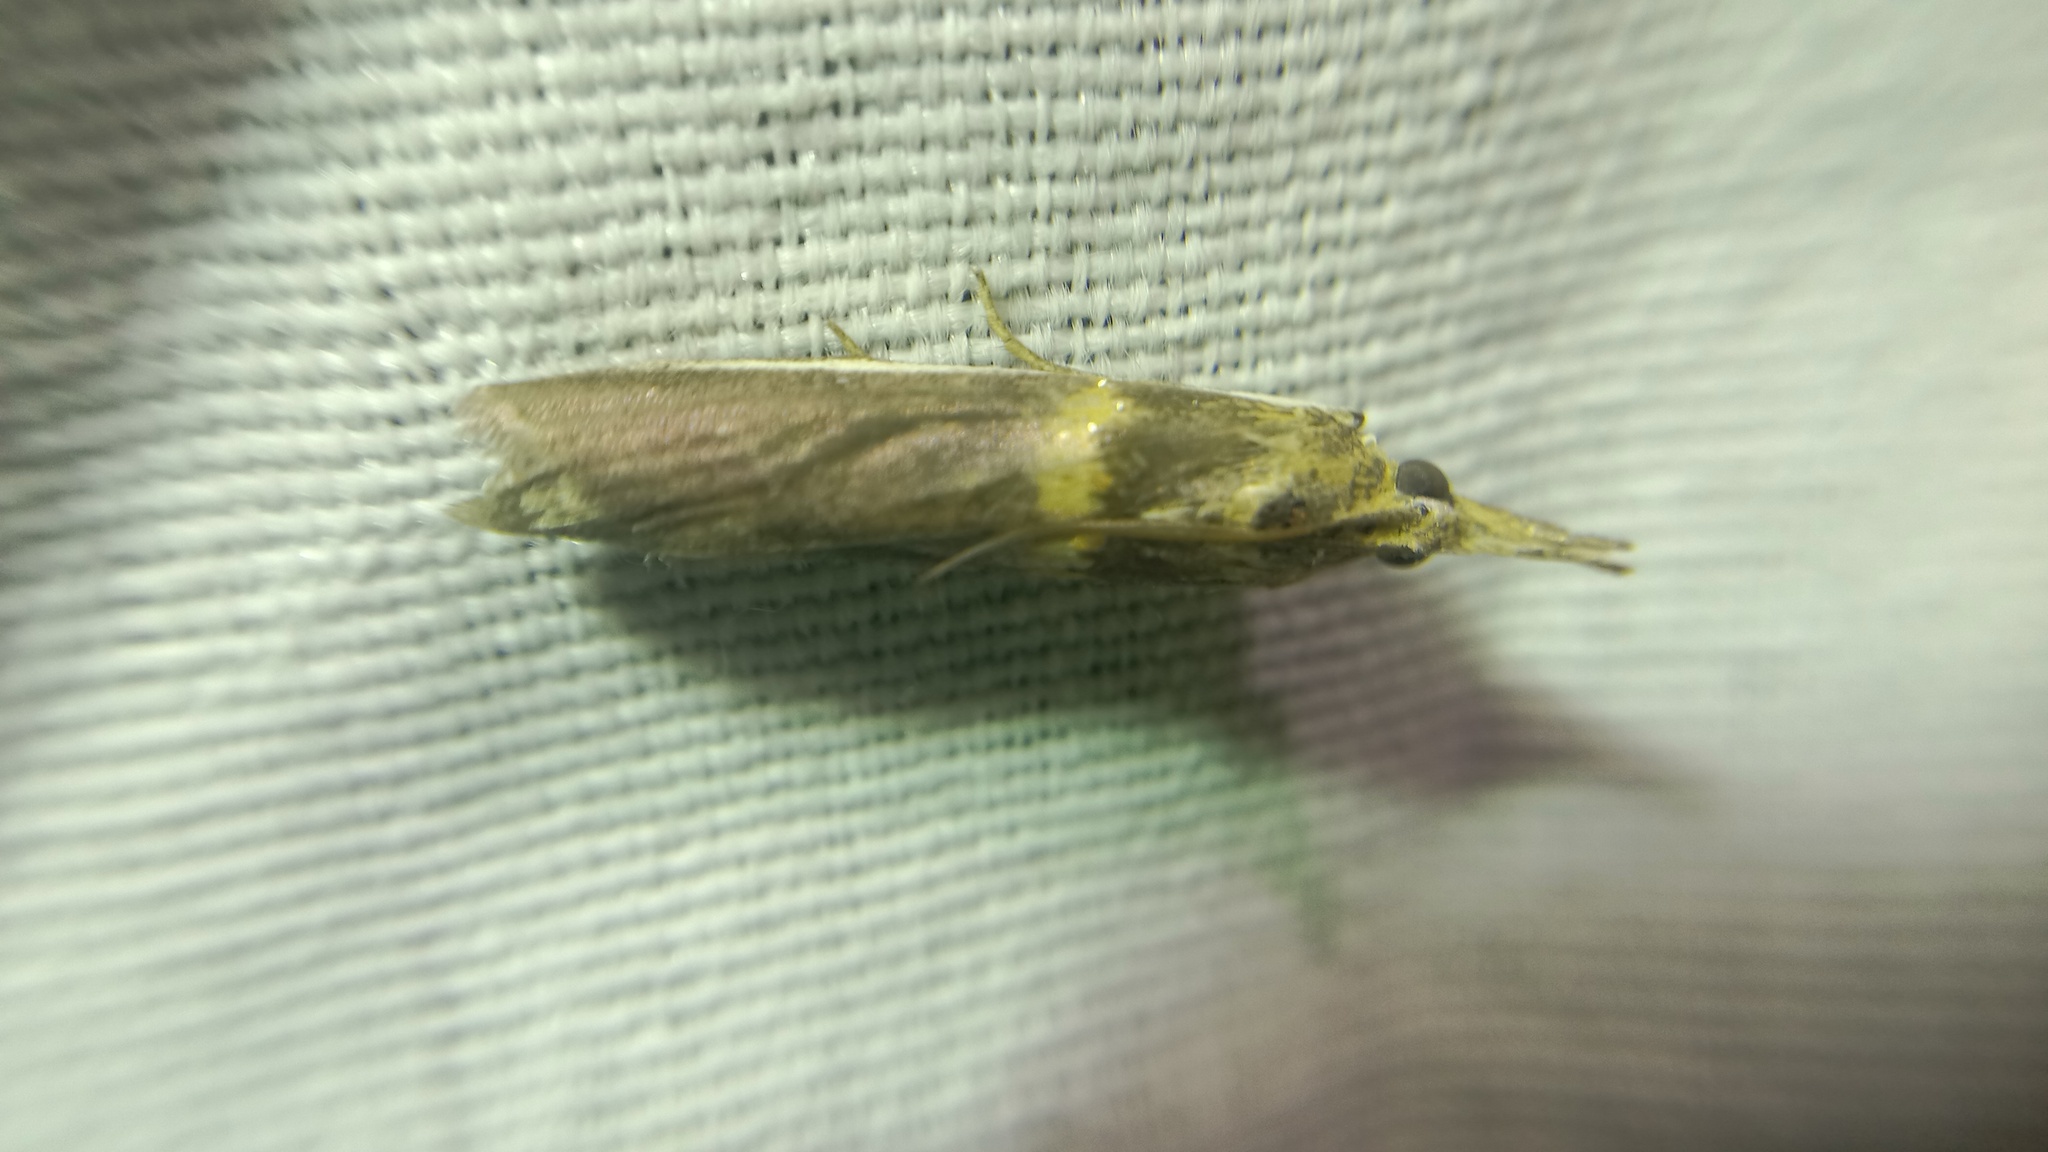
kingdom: Animalia
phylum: Arthropoda
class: Insecta
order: Lepidoptera
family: Pyralidae
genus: Etiella
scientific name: Etiella zinckenella
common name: Gold-banded etiella moth
